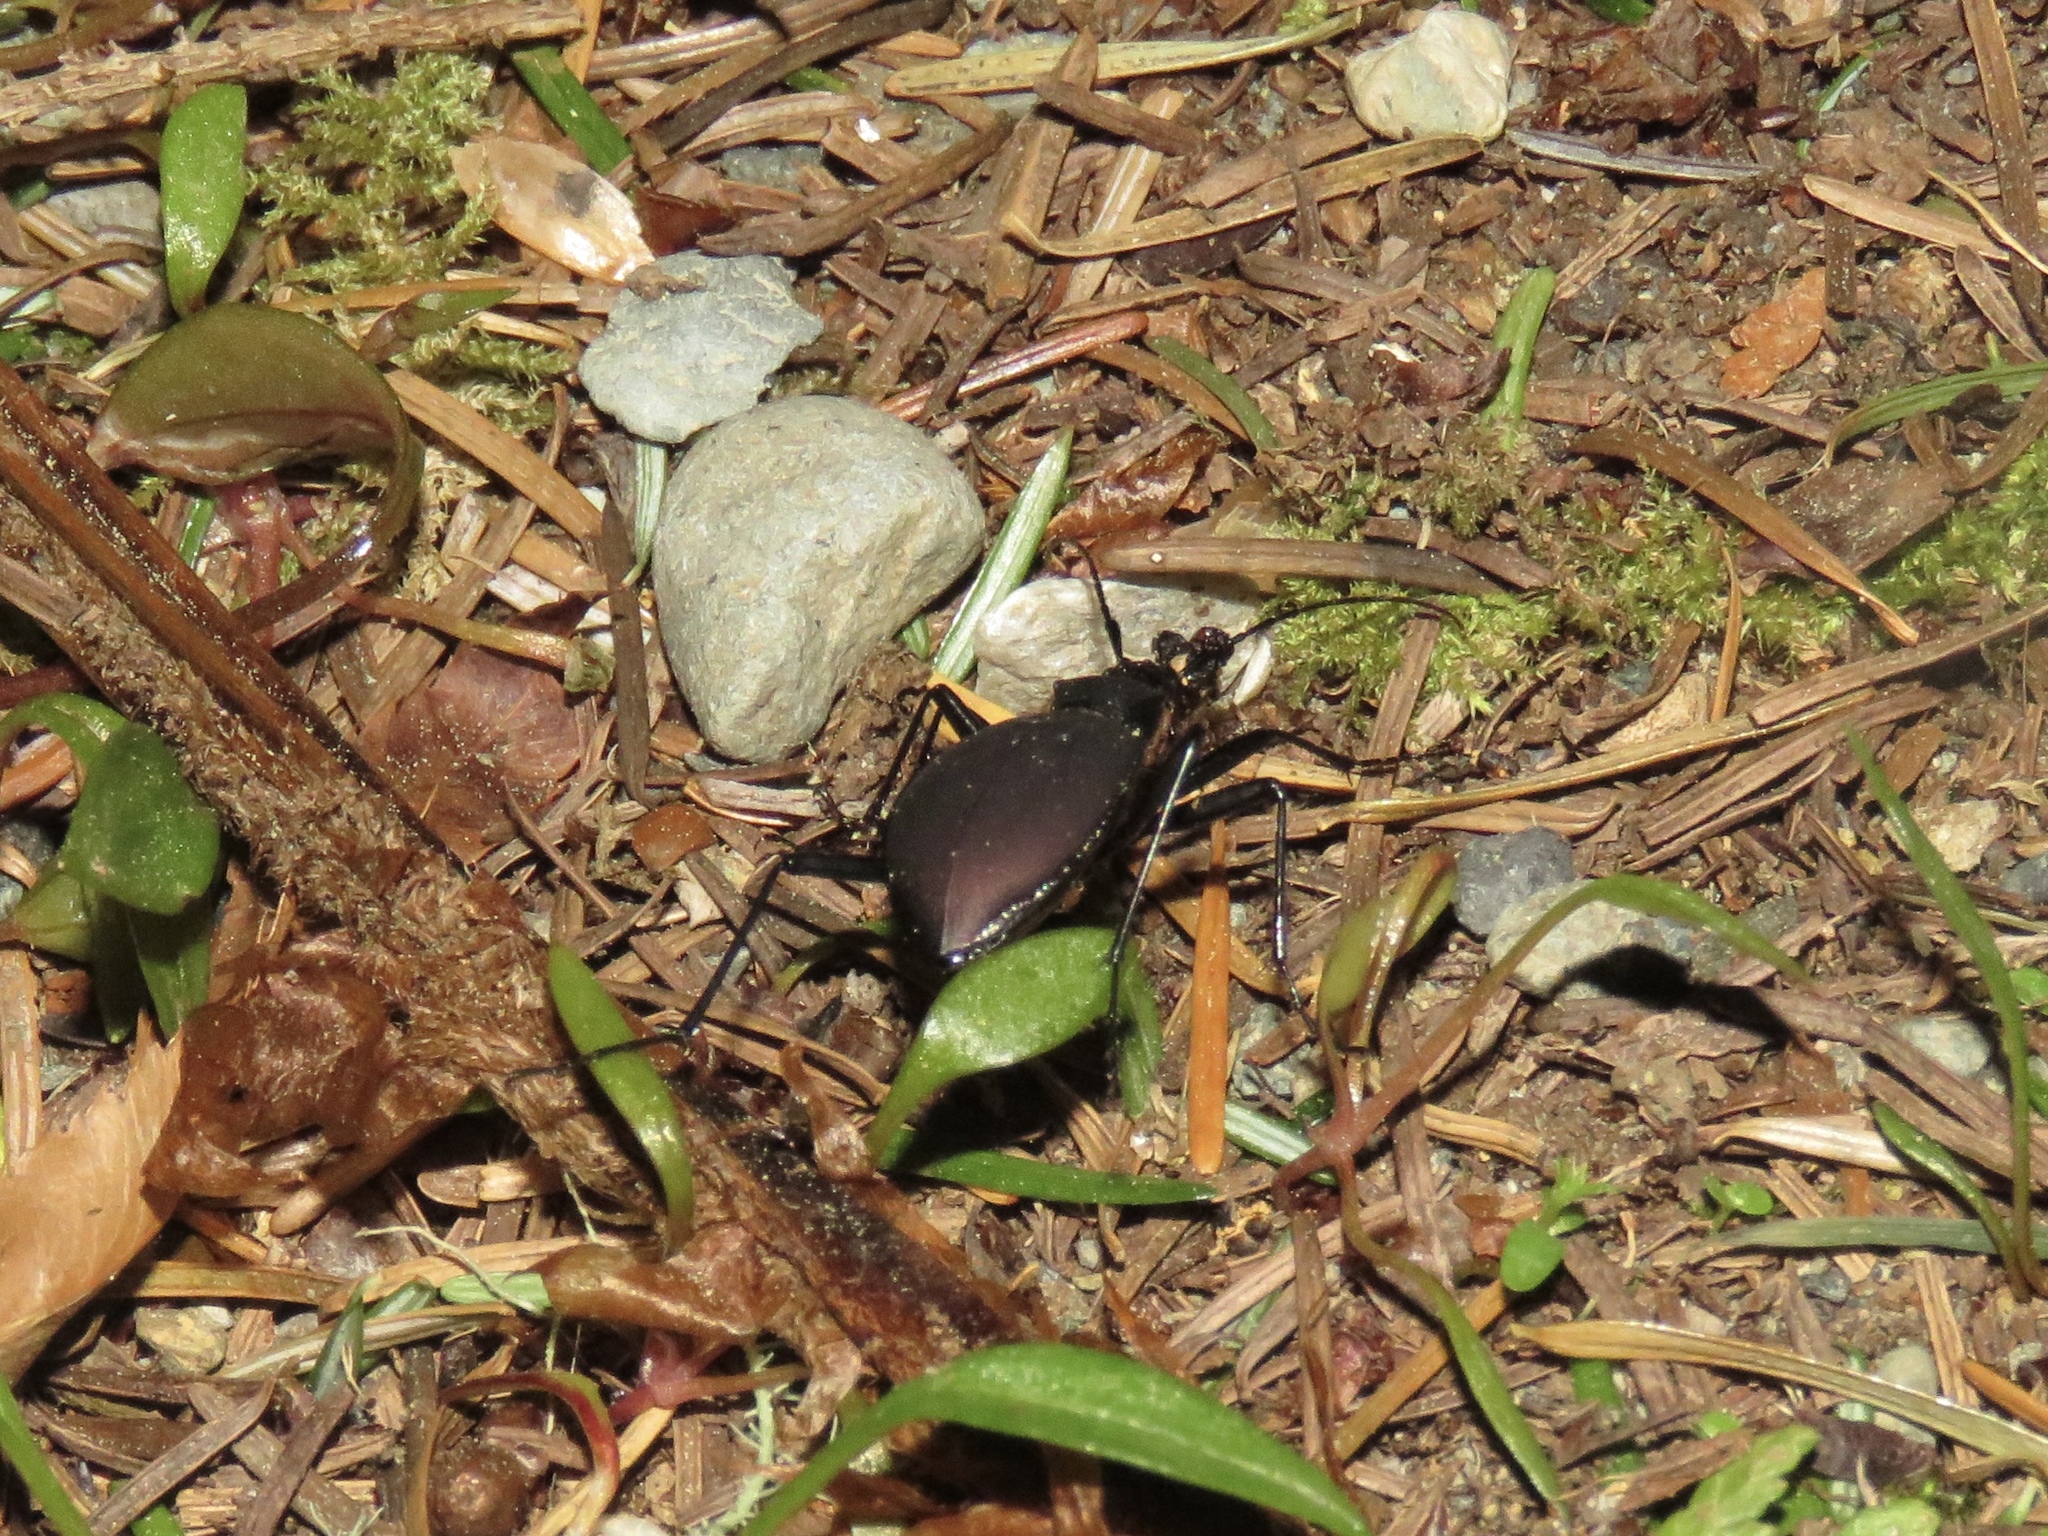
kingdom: Animalia
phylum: Arthropoda
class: Insecta
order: Coleoptera
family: Carabidae
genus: Scaphinotus
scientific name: Scaphinotus angusticollis
